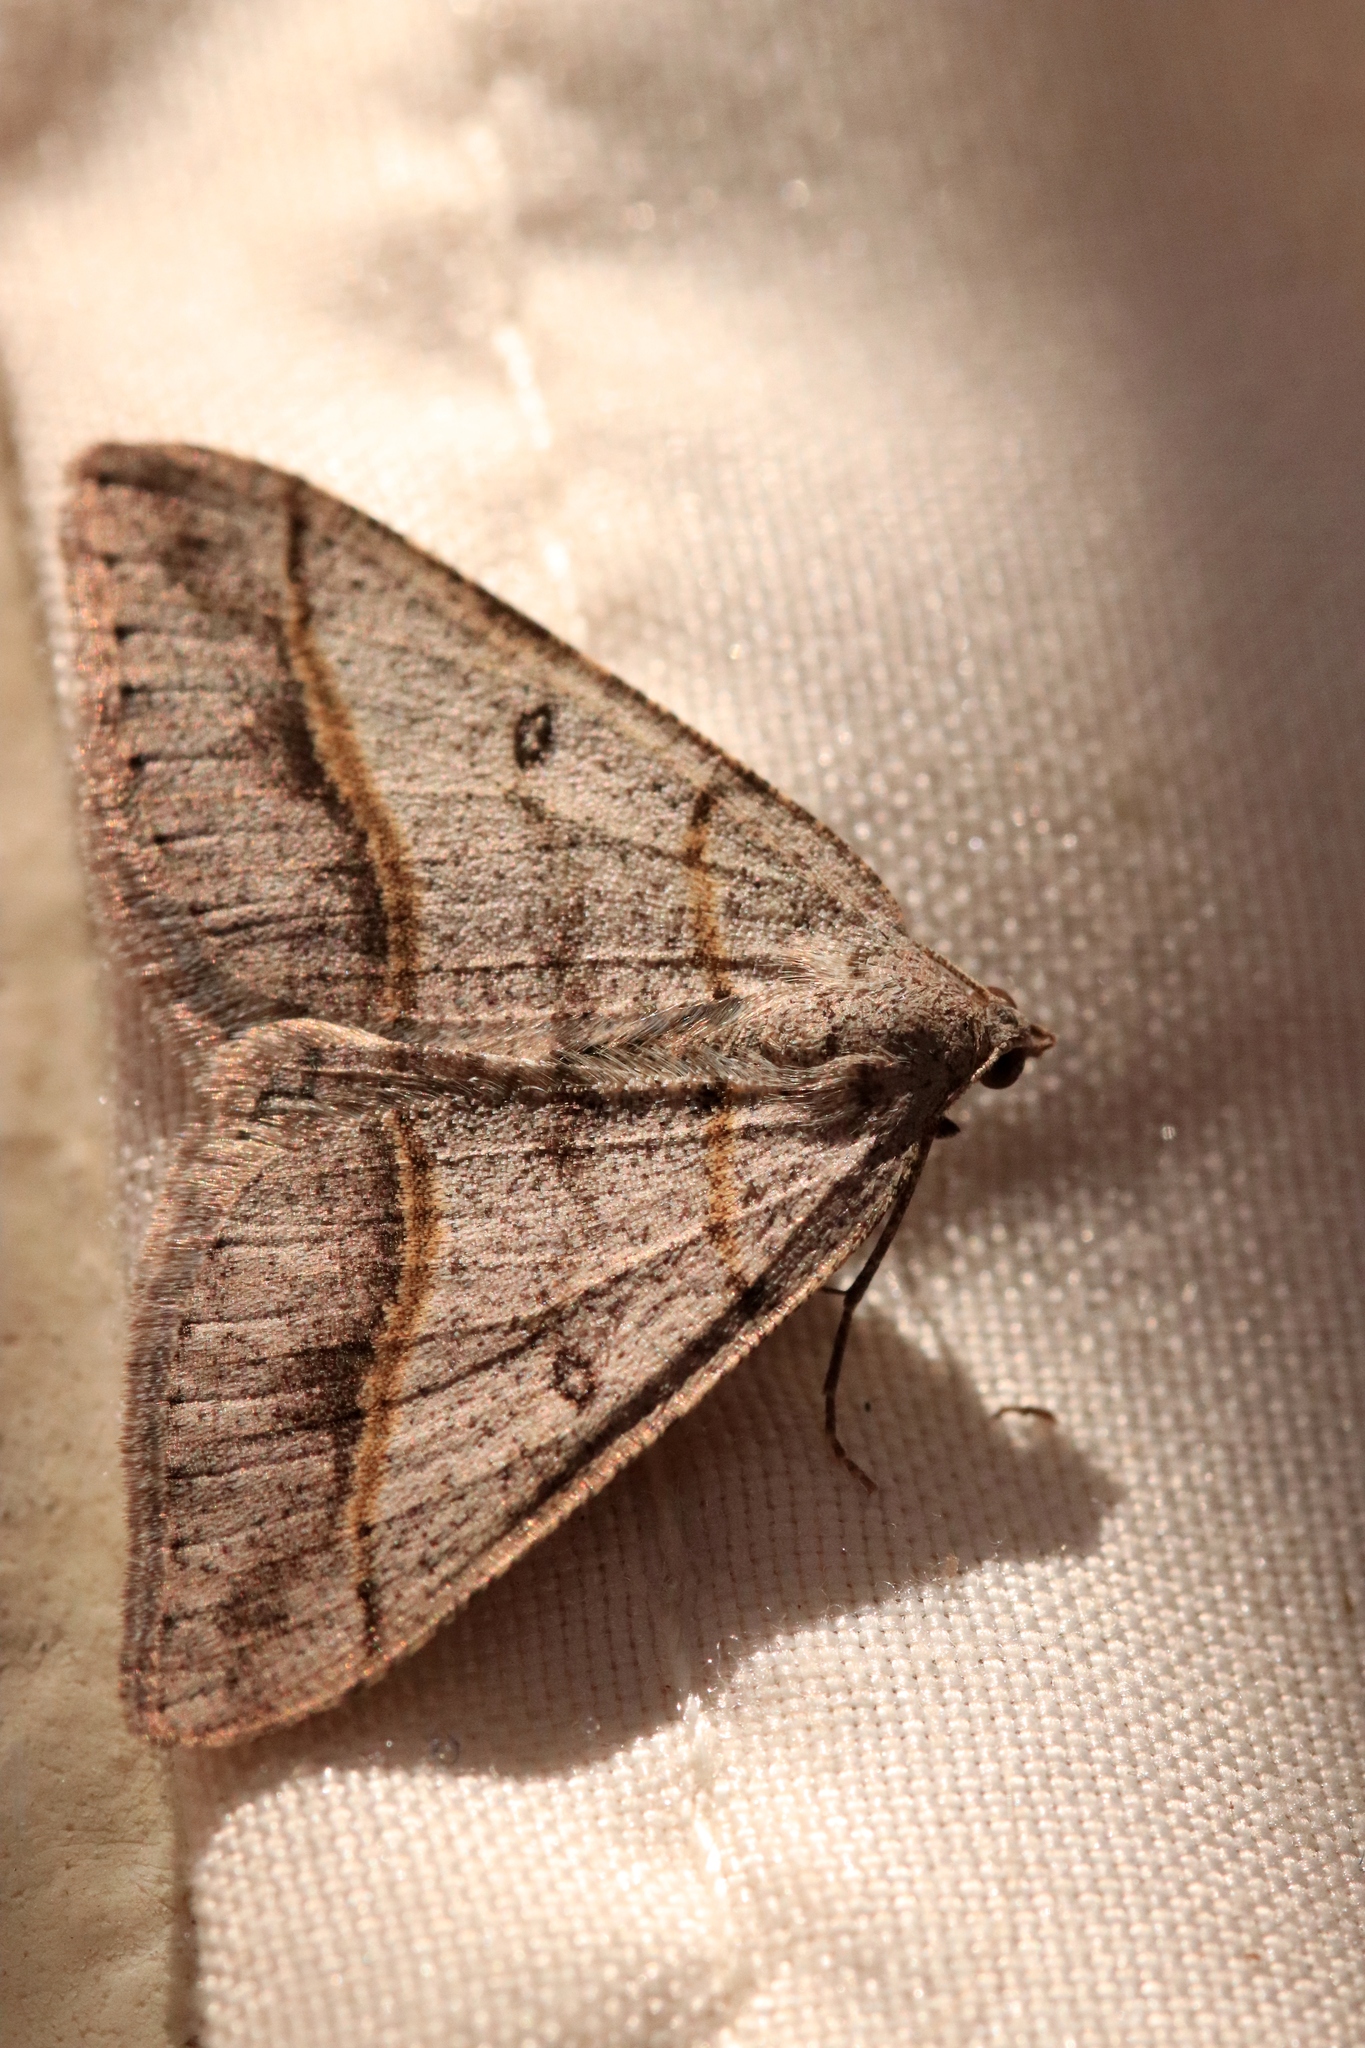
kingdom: Animalia
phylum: Arthropoda
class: Insecta
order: Lepidoptera
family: Geometridae
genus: Digrammia
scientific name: Digrammia neptaria
